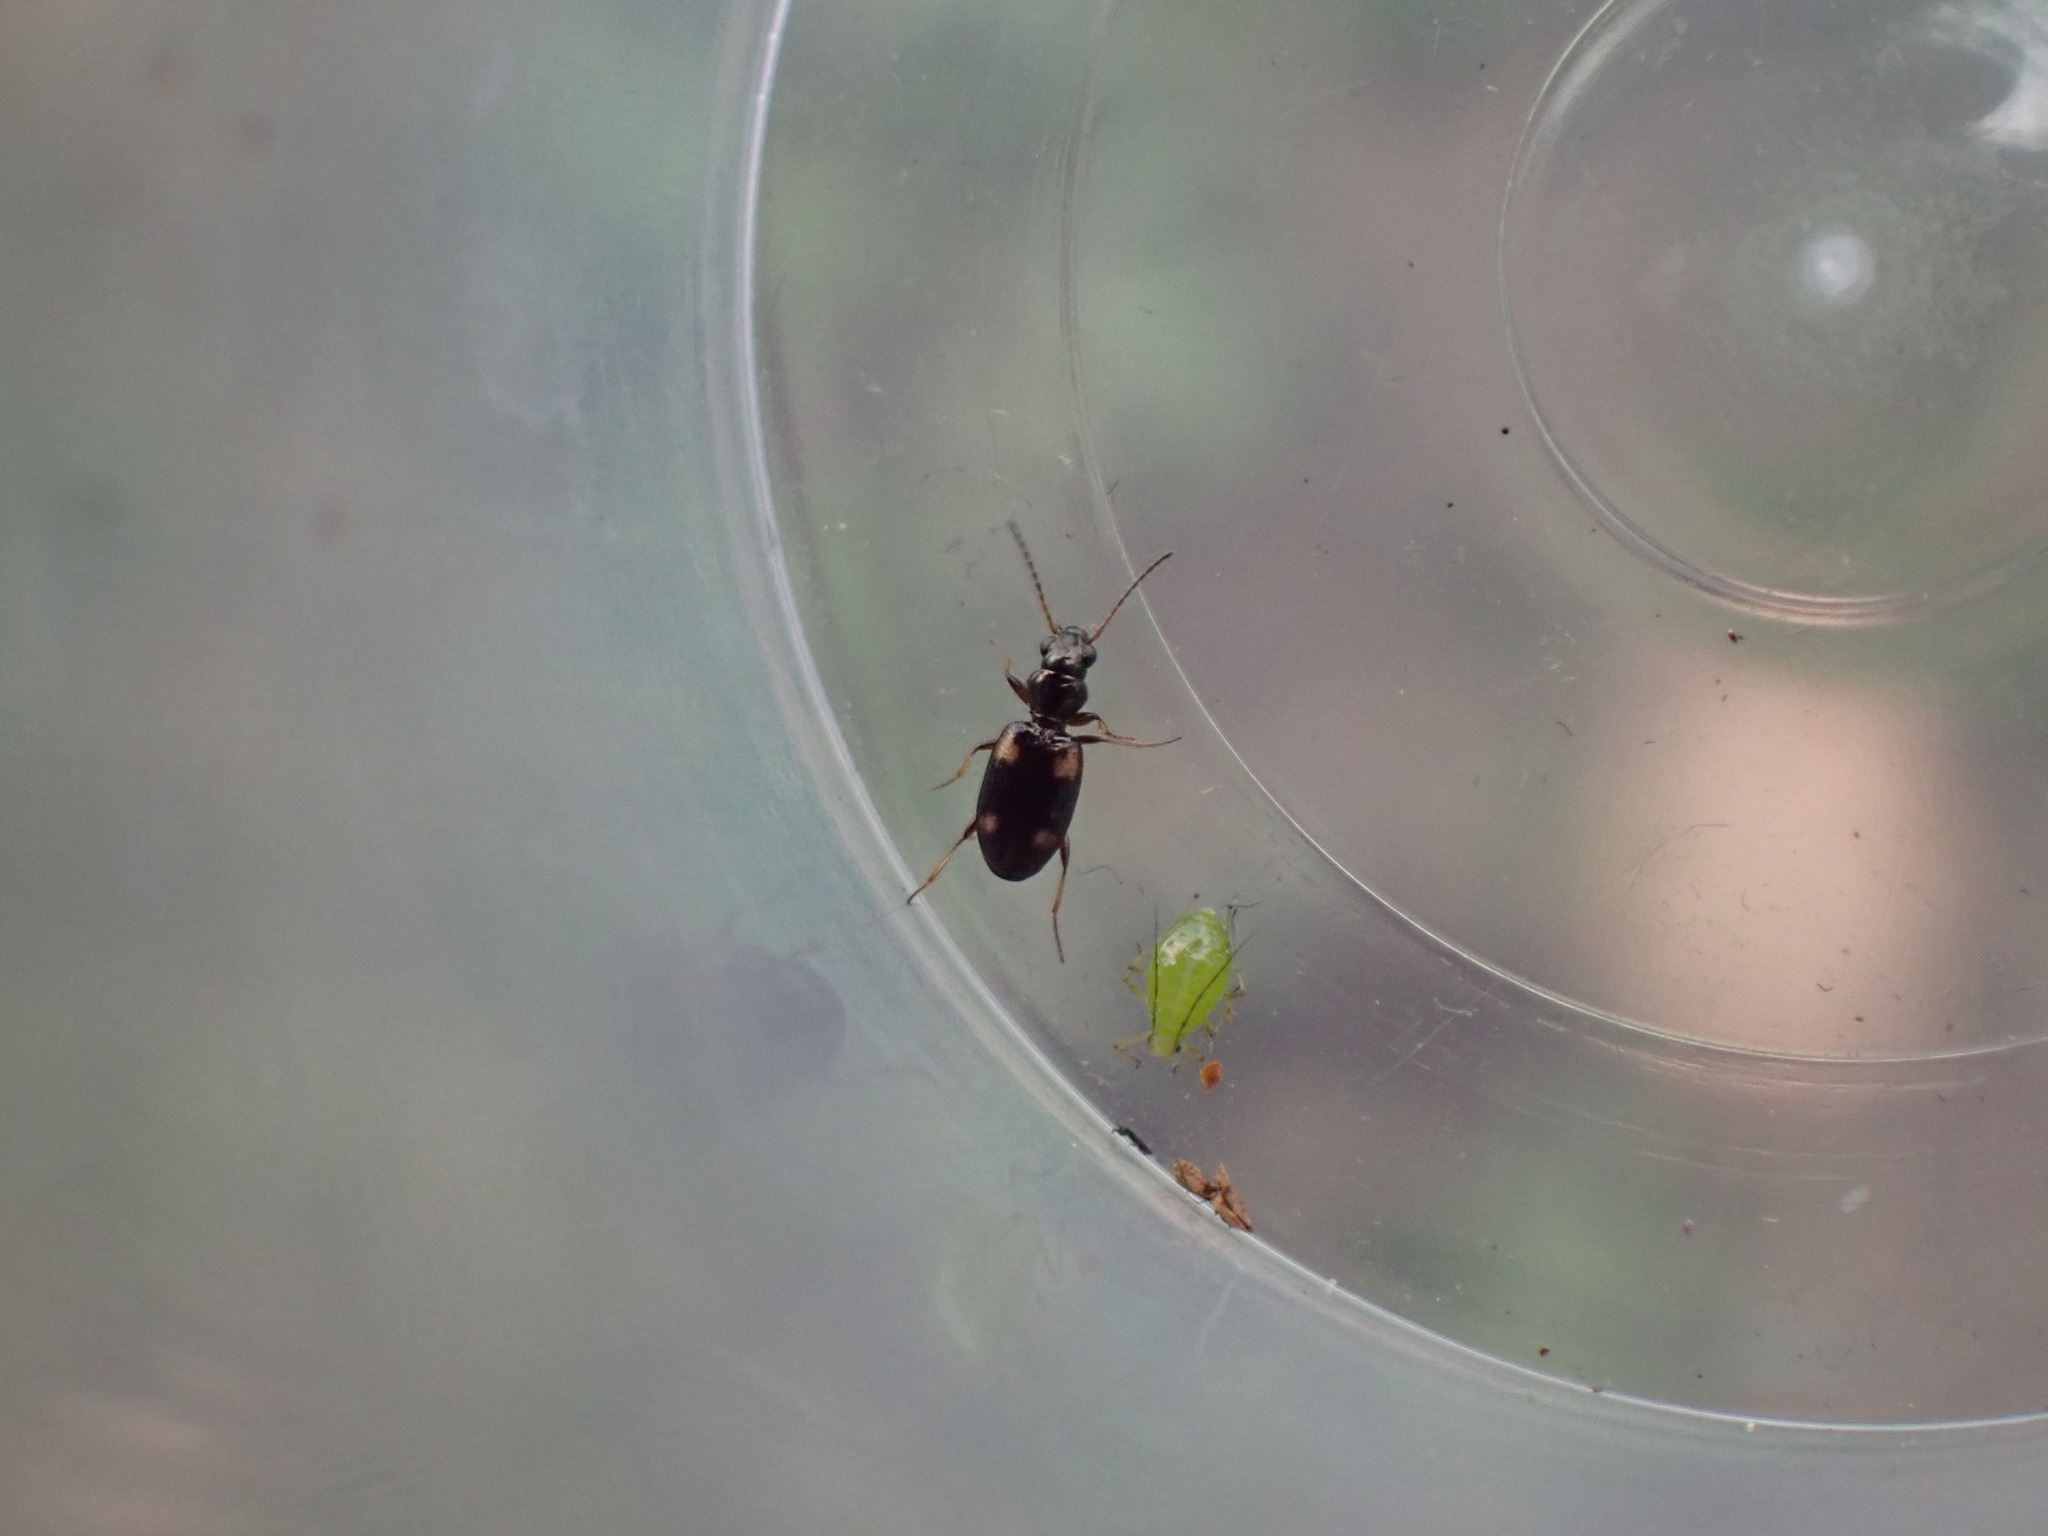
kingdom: Animalia
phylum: Arthropoda
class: Insecta
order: Coleoptera
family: Carabidae
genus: Bembidion
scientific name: Bembidion quadrimaculatum
